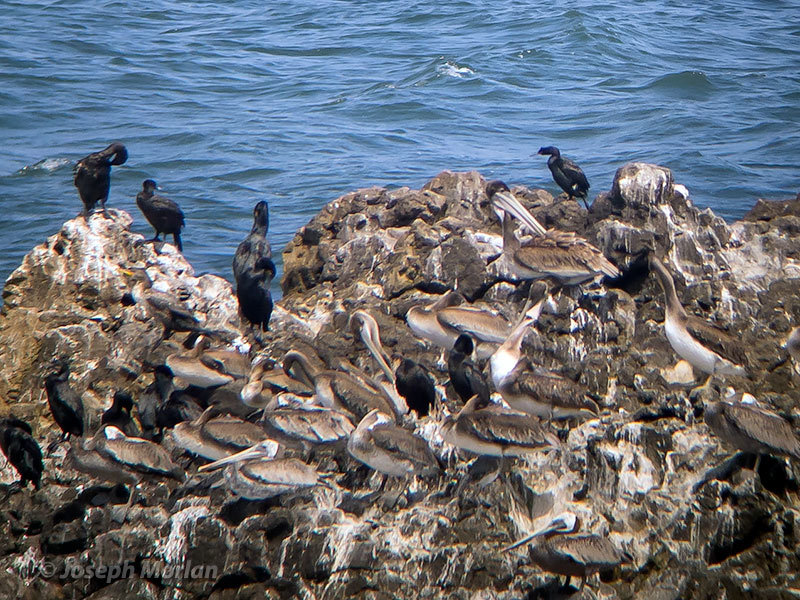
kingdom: Animalia
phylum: Chordata
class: Aves
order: Suliformes
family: Phalacrocoracidae
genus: Urile
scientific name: Urile penicillatus
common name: Brandt's cormorant
